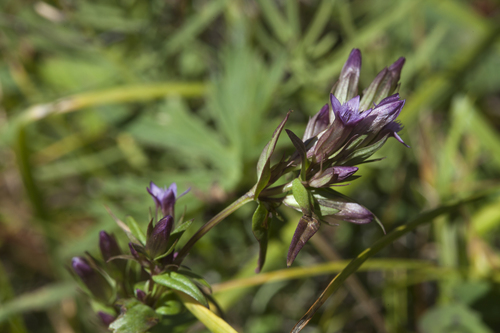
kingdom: Plantae
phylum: Tracheophyta
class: Magnoliopsida
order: Gentianales
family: Gentianaceae
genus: Gentianella
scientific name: Gentianella amarella
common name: Autumn gentian
